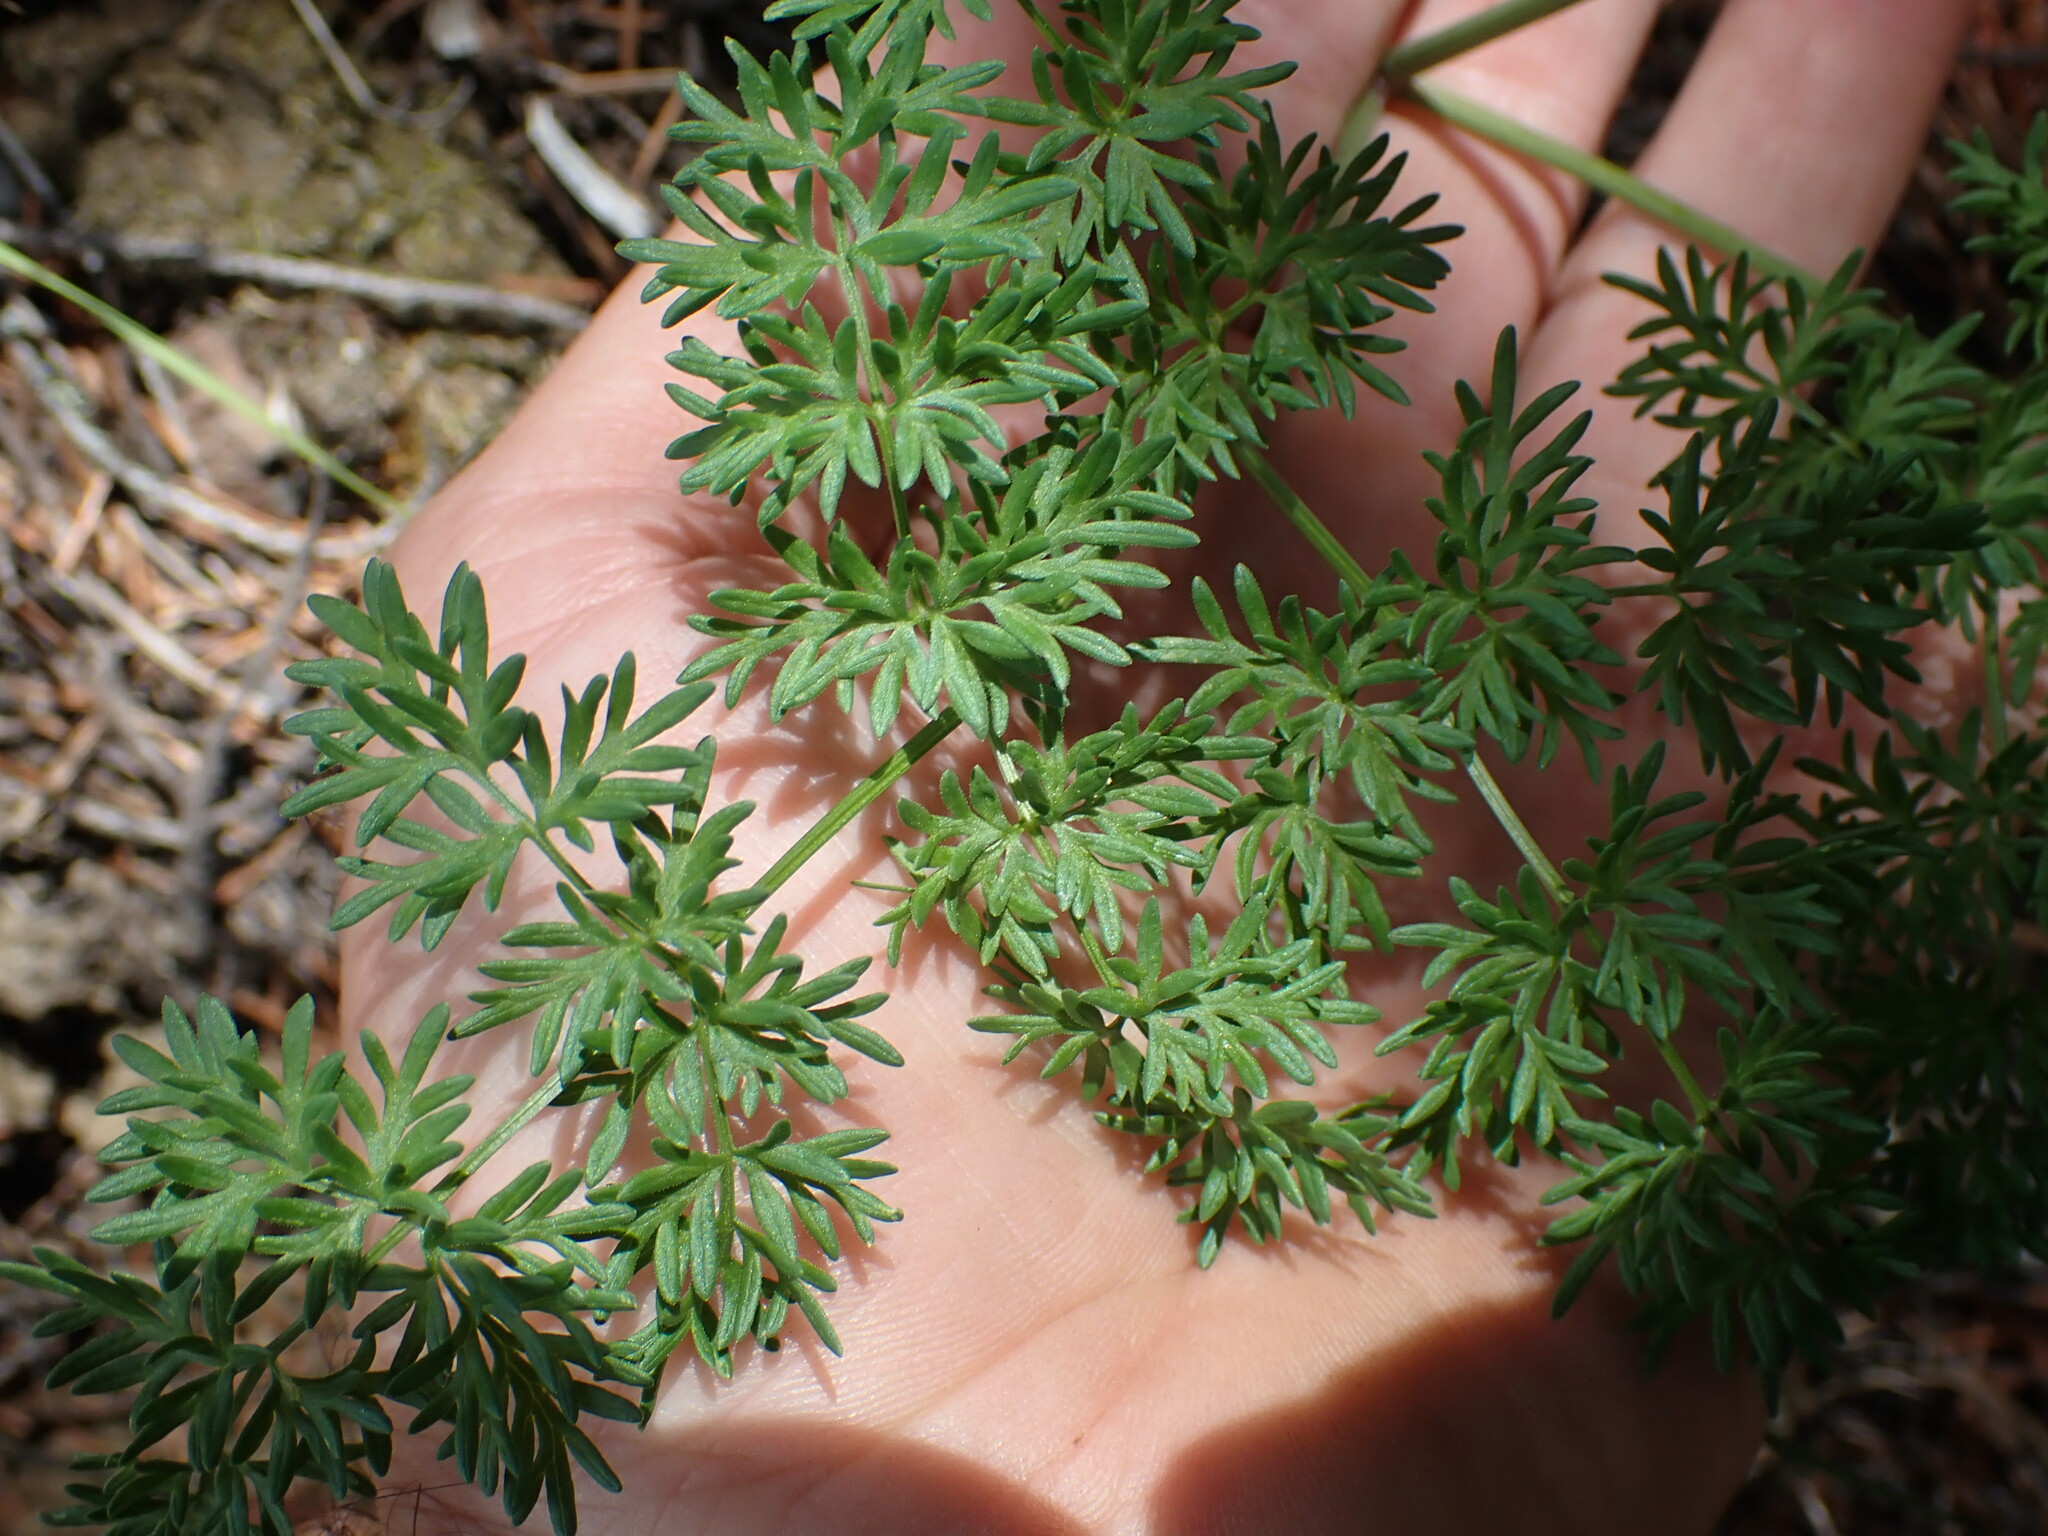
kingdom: Plantae
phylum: Tracheophyta
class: Magnoliopsida
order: Apiales
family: Apiaceae
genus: Lomatium
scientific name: Lomatium multifidum
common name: Carrot-leaved biscuitroot
